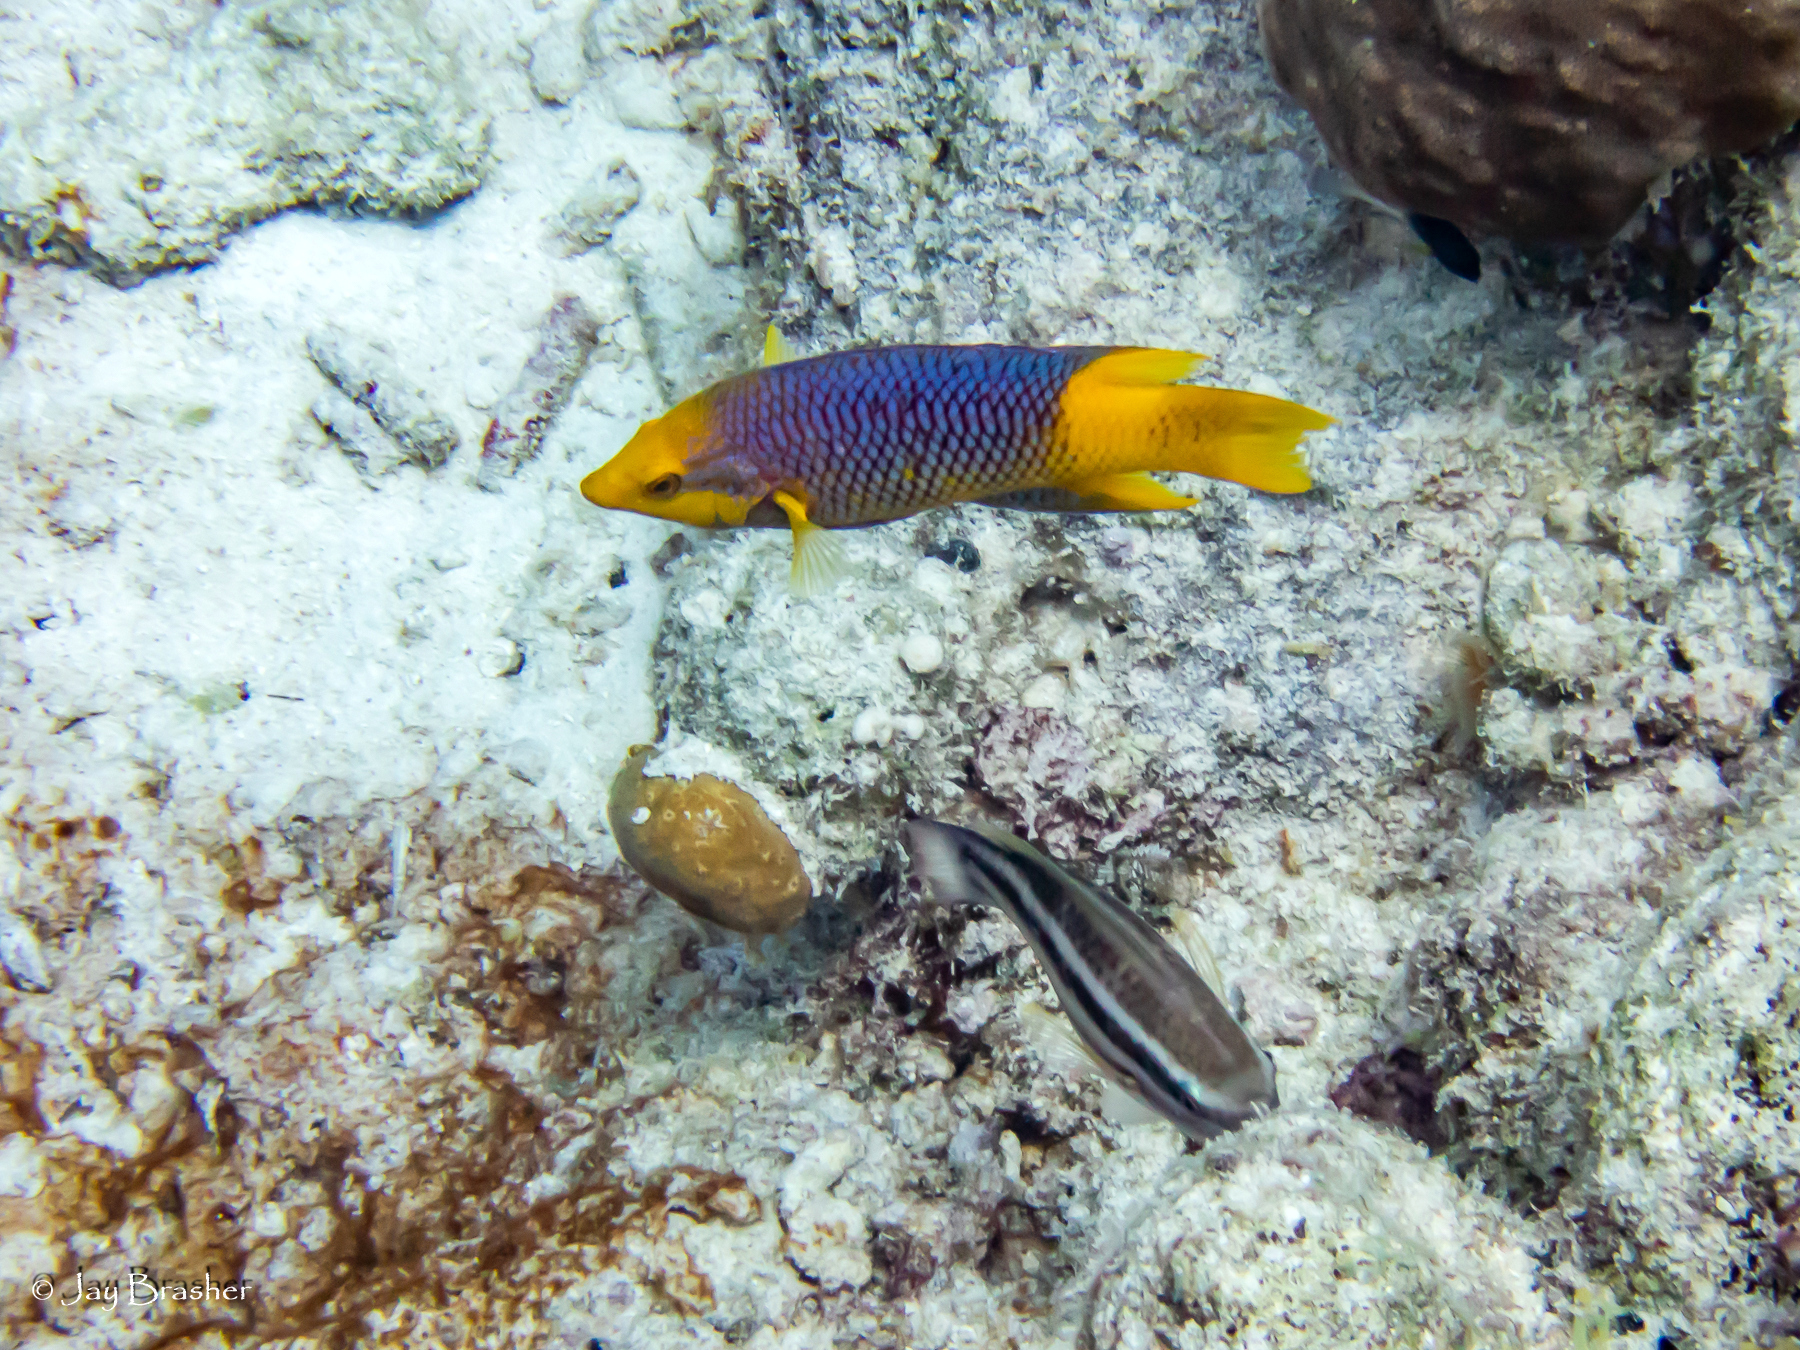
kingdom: Animalia
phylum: Chordata
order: Perciformes
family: Scaridae
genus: Scarus
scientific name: Scarus taeniopterus
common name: Princess parrotfish
